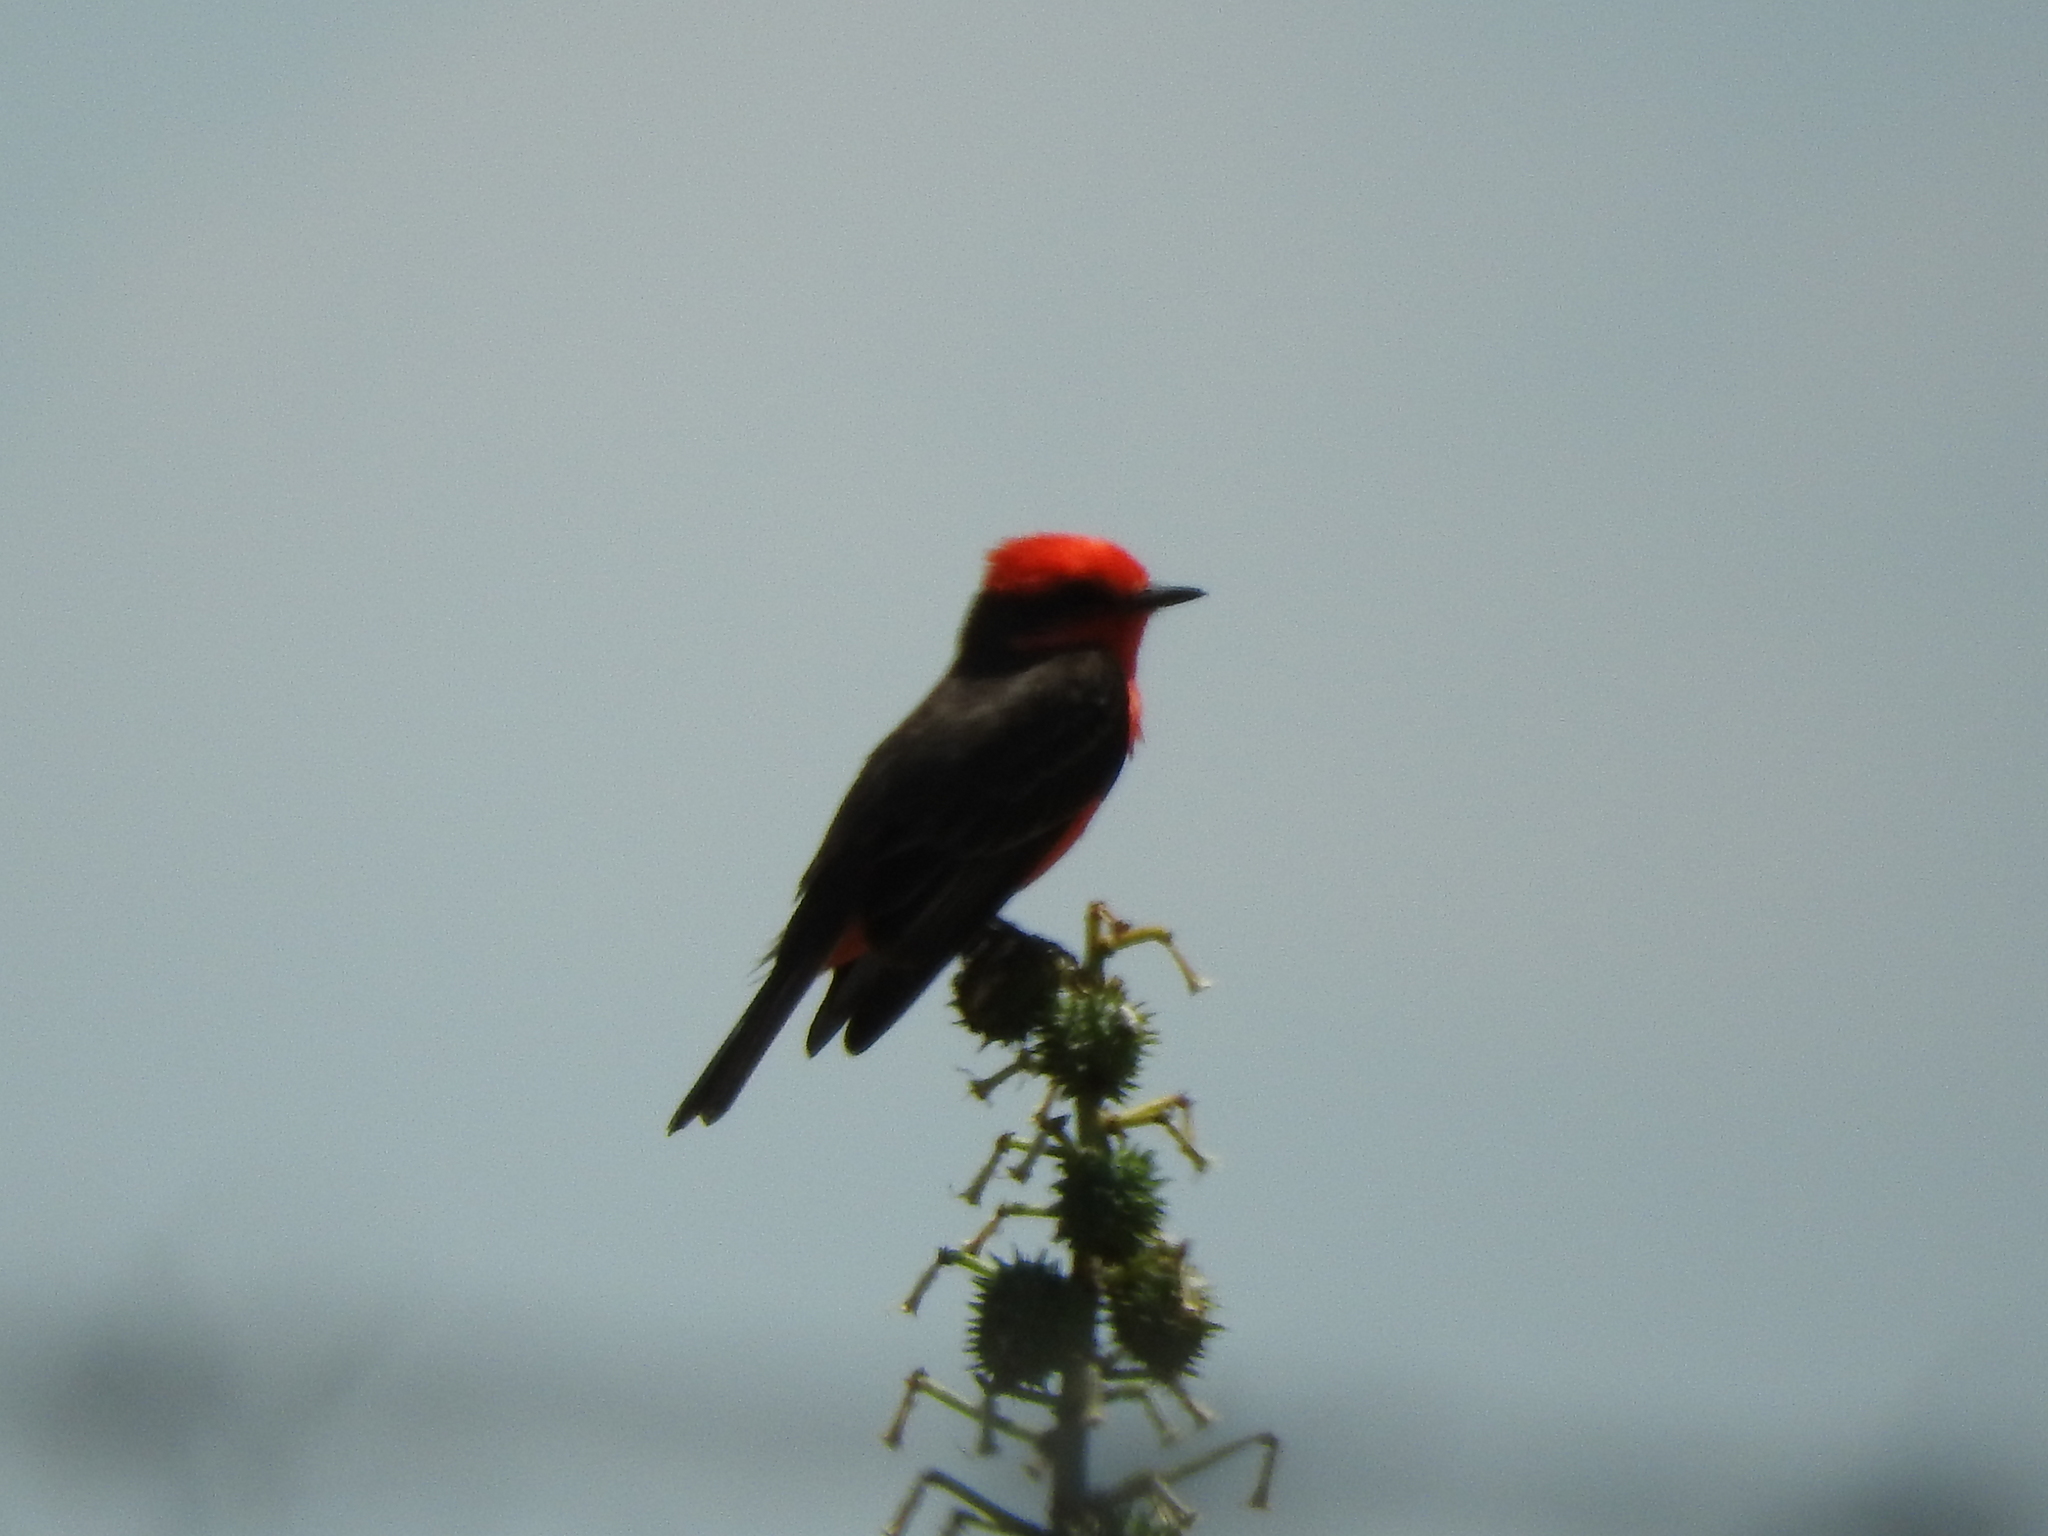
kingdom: Animalia
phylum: Chordata
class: Aves
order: Passeriformes
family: Tyrannidae
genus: Pyrocephalus
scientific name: Pyrocephalus rubinus
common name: Vermilion flycatcher
